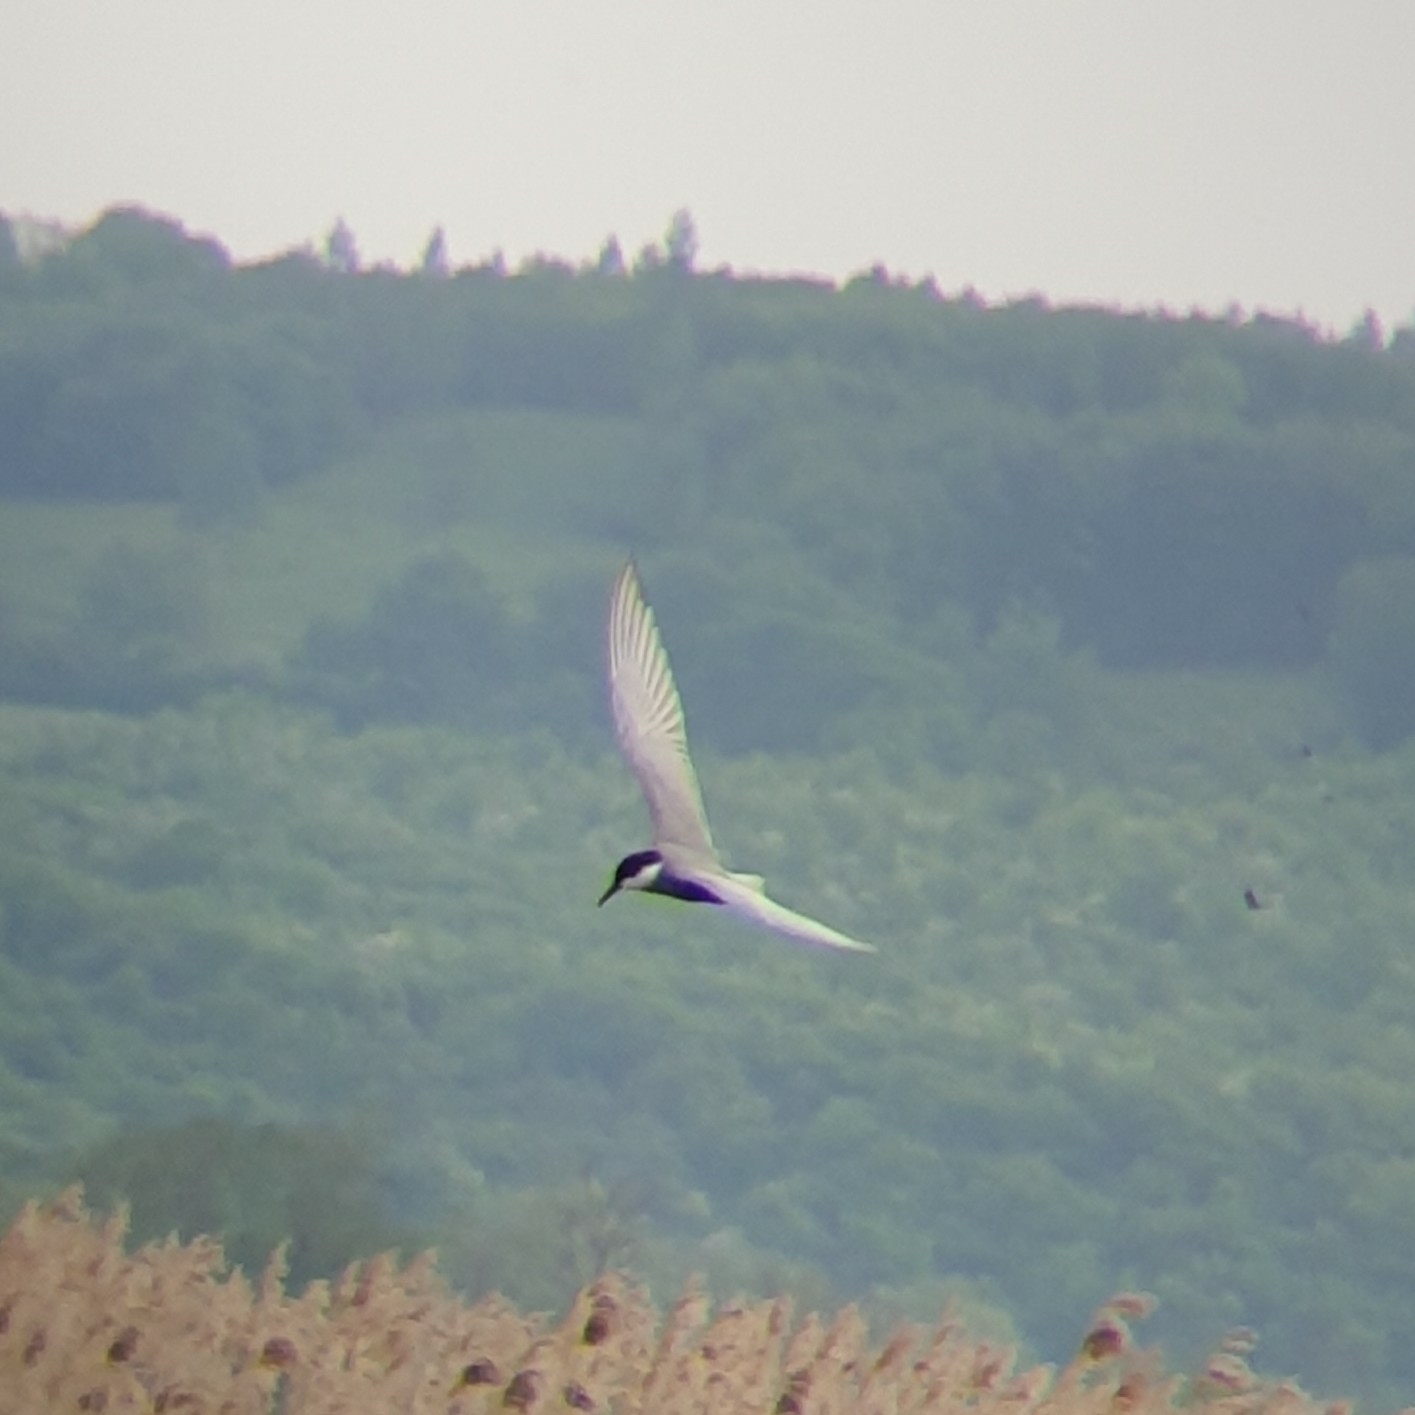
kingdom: Animalia
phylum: Chordata
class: Aves
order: Charadriiformes
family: Laridae
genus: Chlidonias
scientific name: Chlidonias hybrida
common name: Whiskered tern
